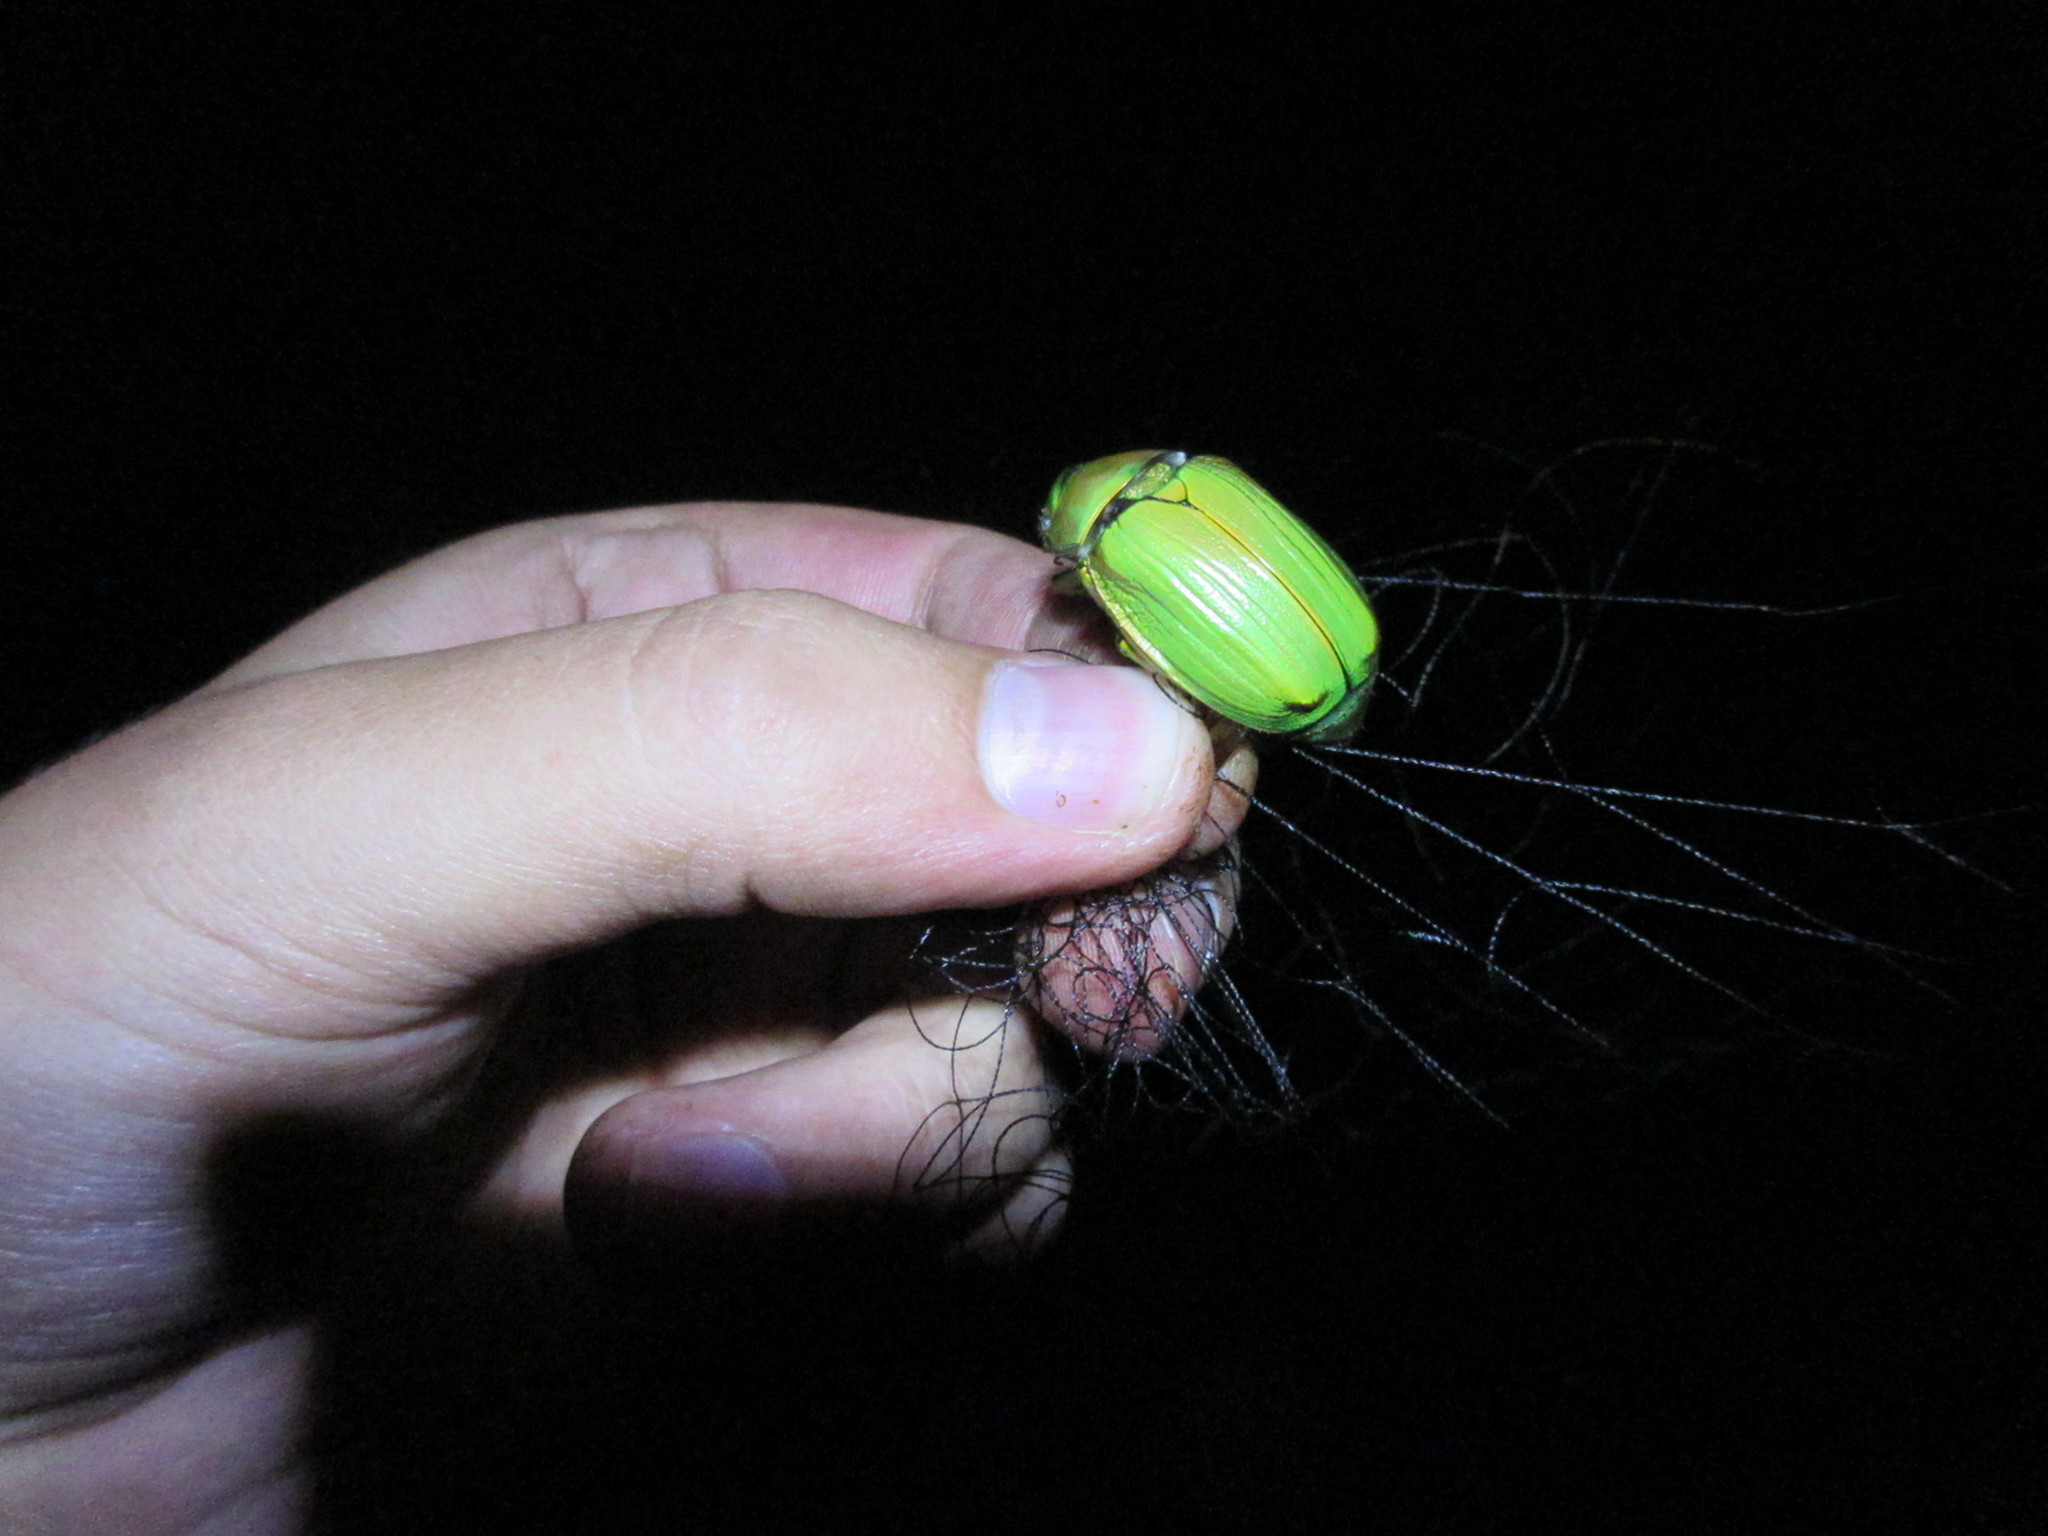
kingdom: Animalia
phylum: Arthropoda
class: Insecta
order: Coleoptera
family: Scarabaeidae
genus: Chrysina
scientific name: Chrysina laniventris
